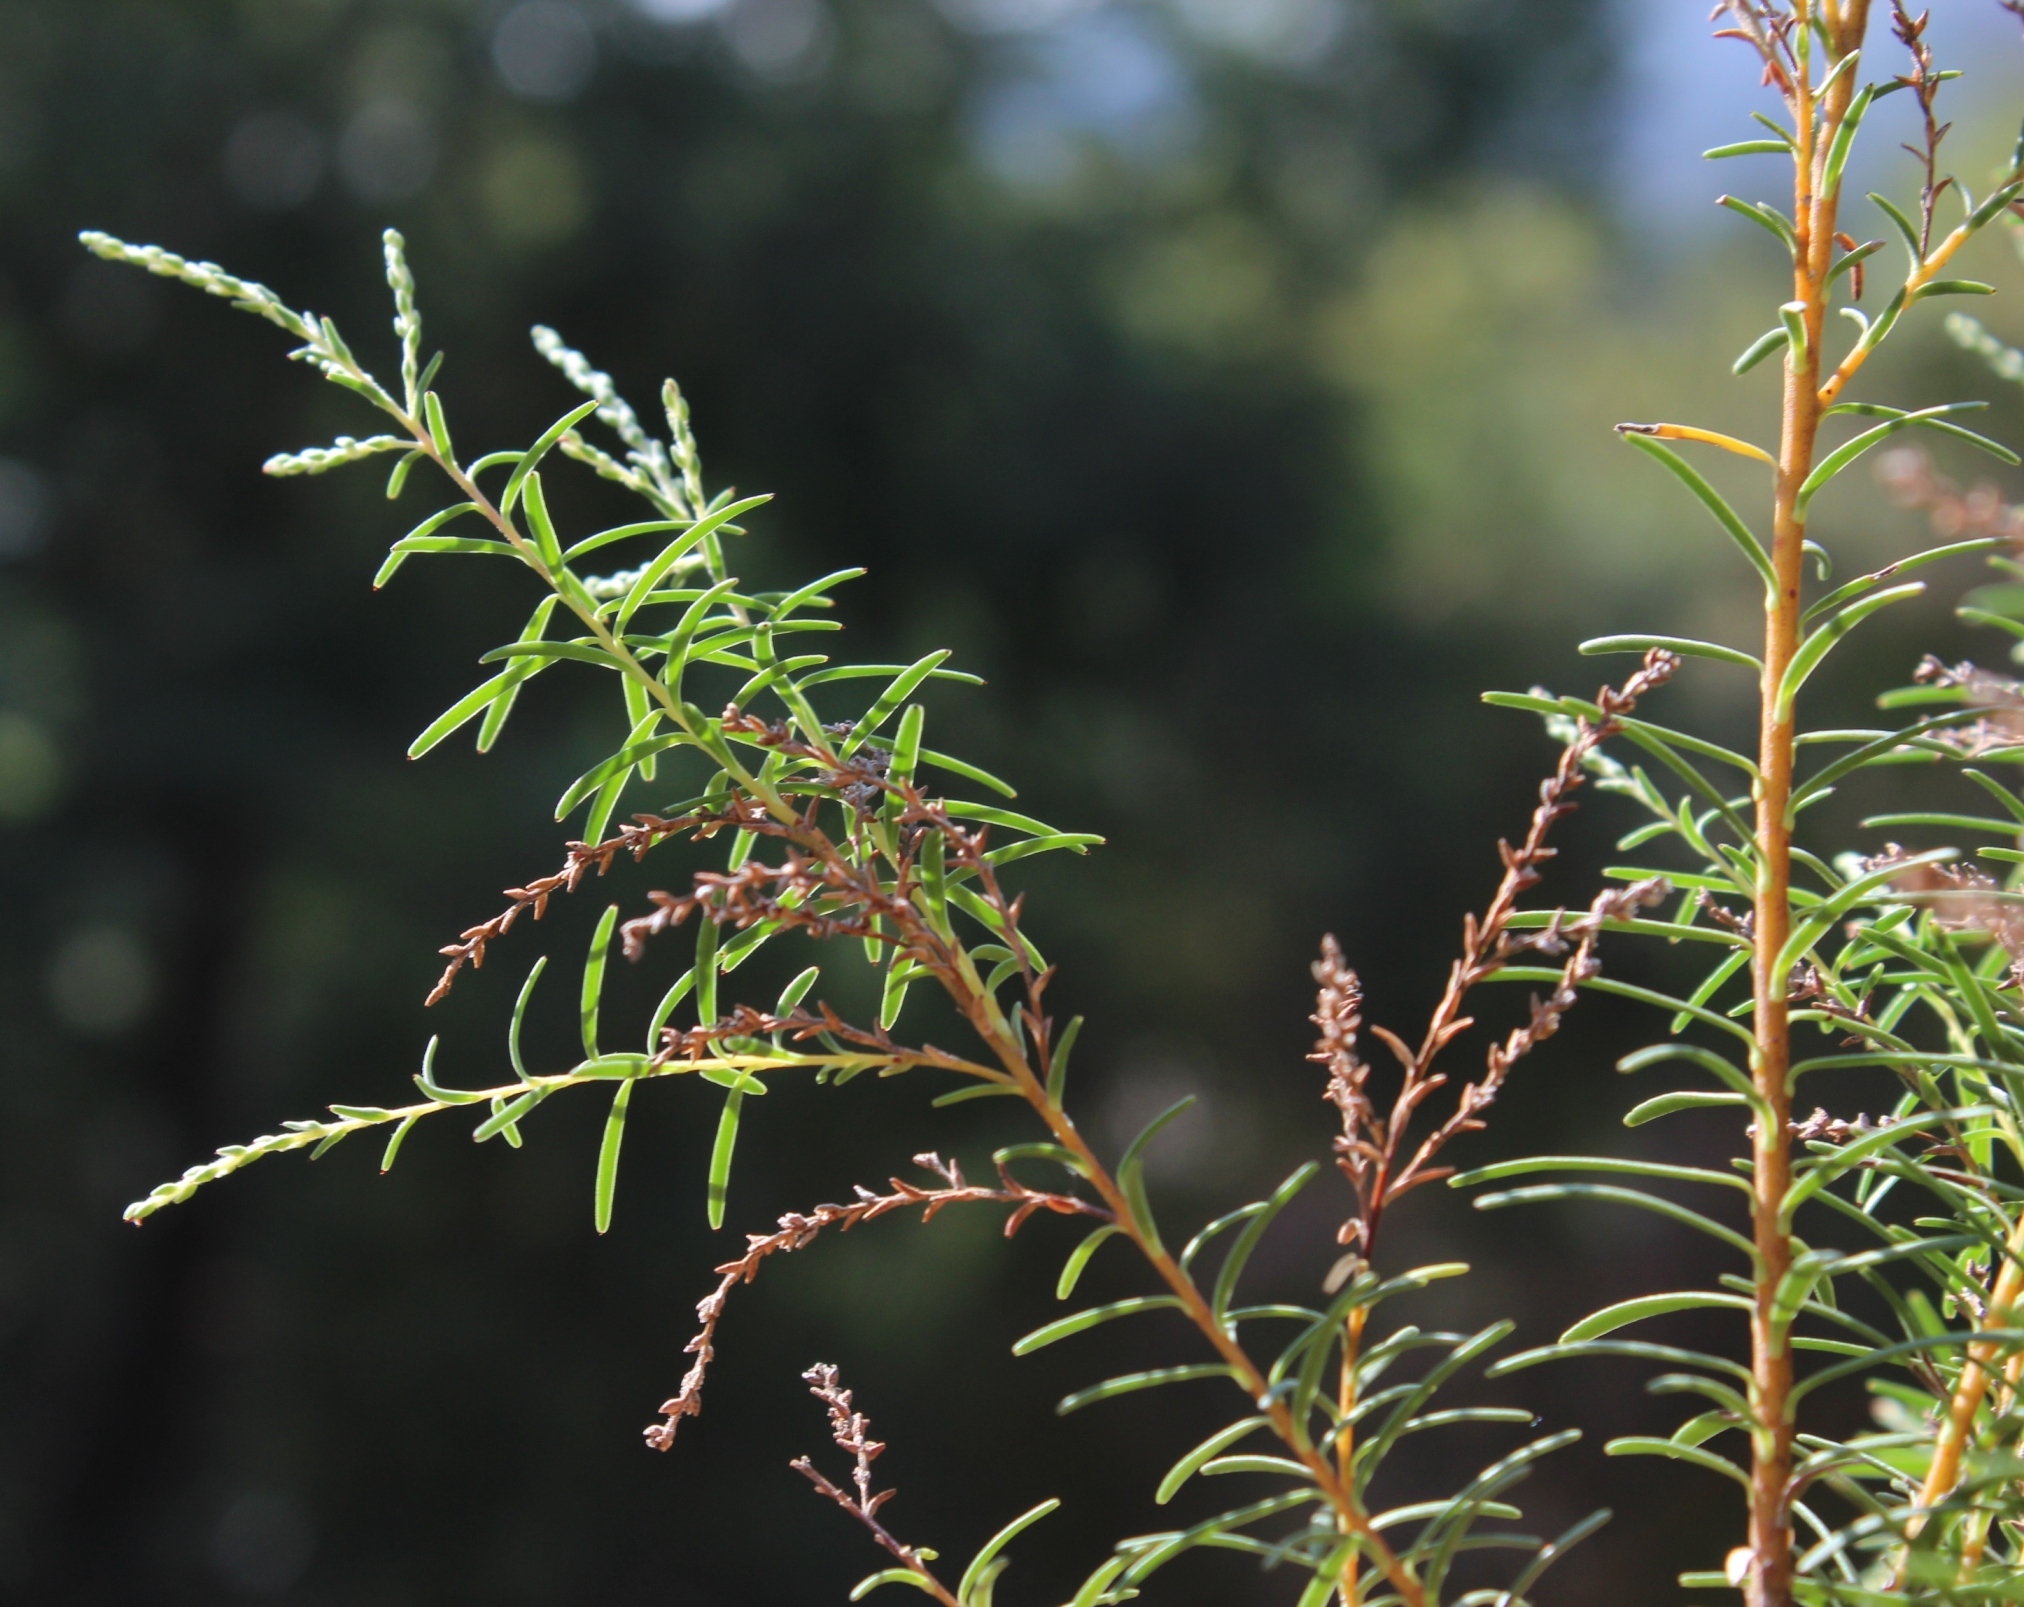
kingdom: Plantae
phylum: Tracheophyta
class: Magnoliopsida
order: Bruniales
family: Bruniaceae
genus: Brunia
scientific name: Brunia africana
